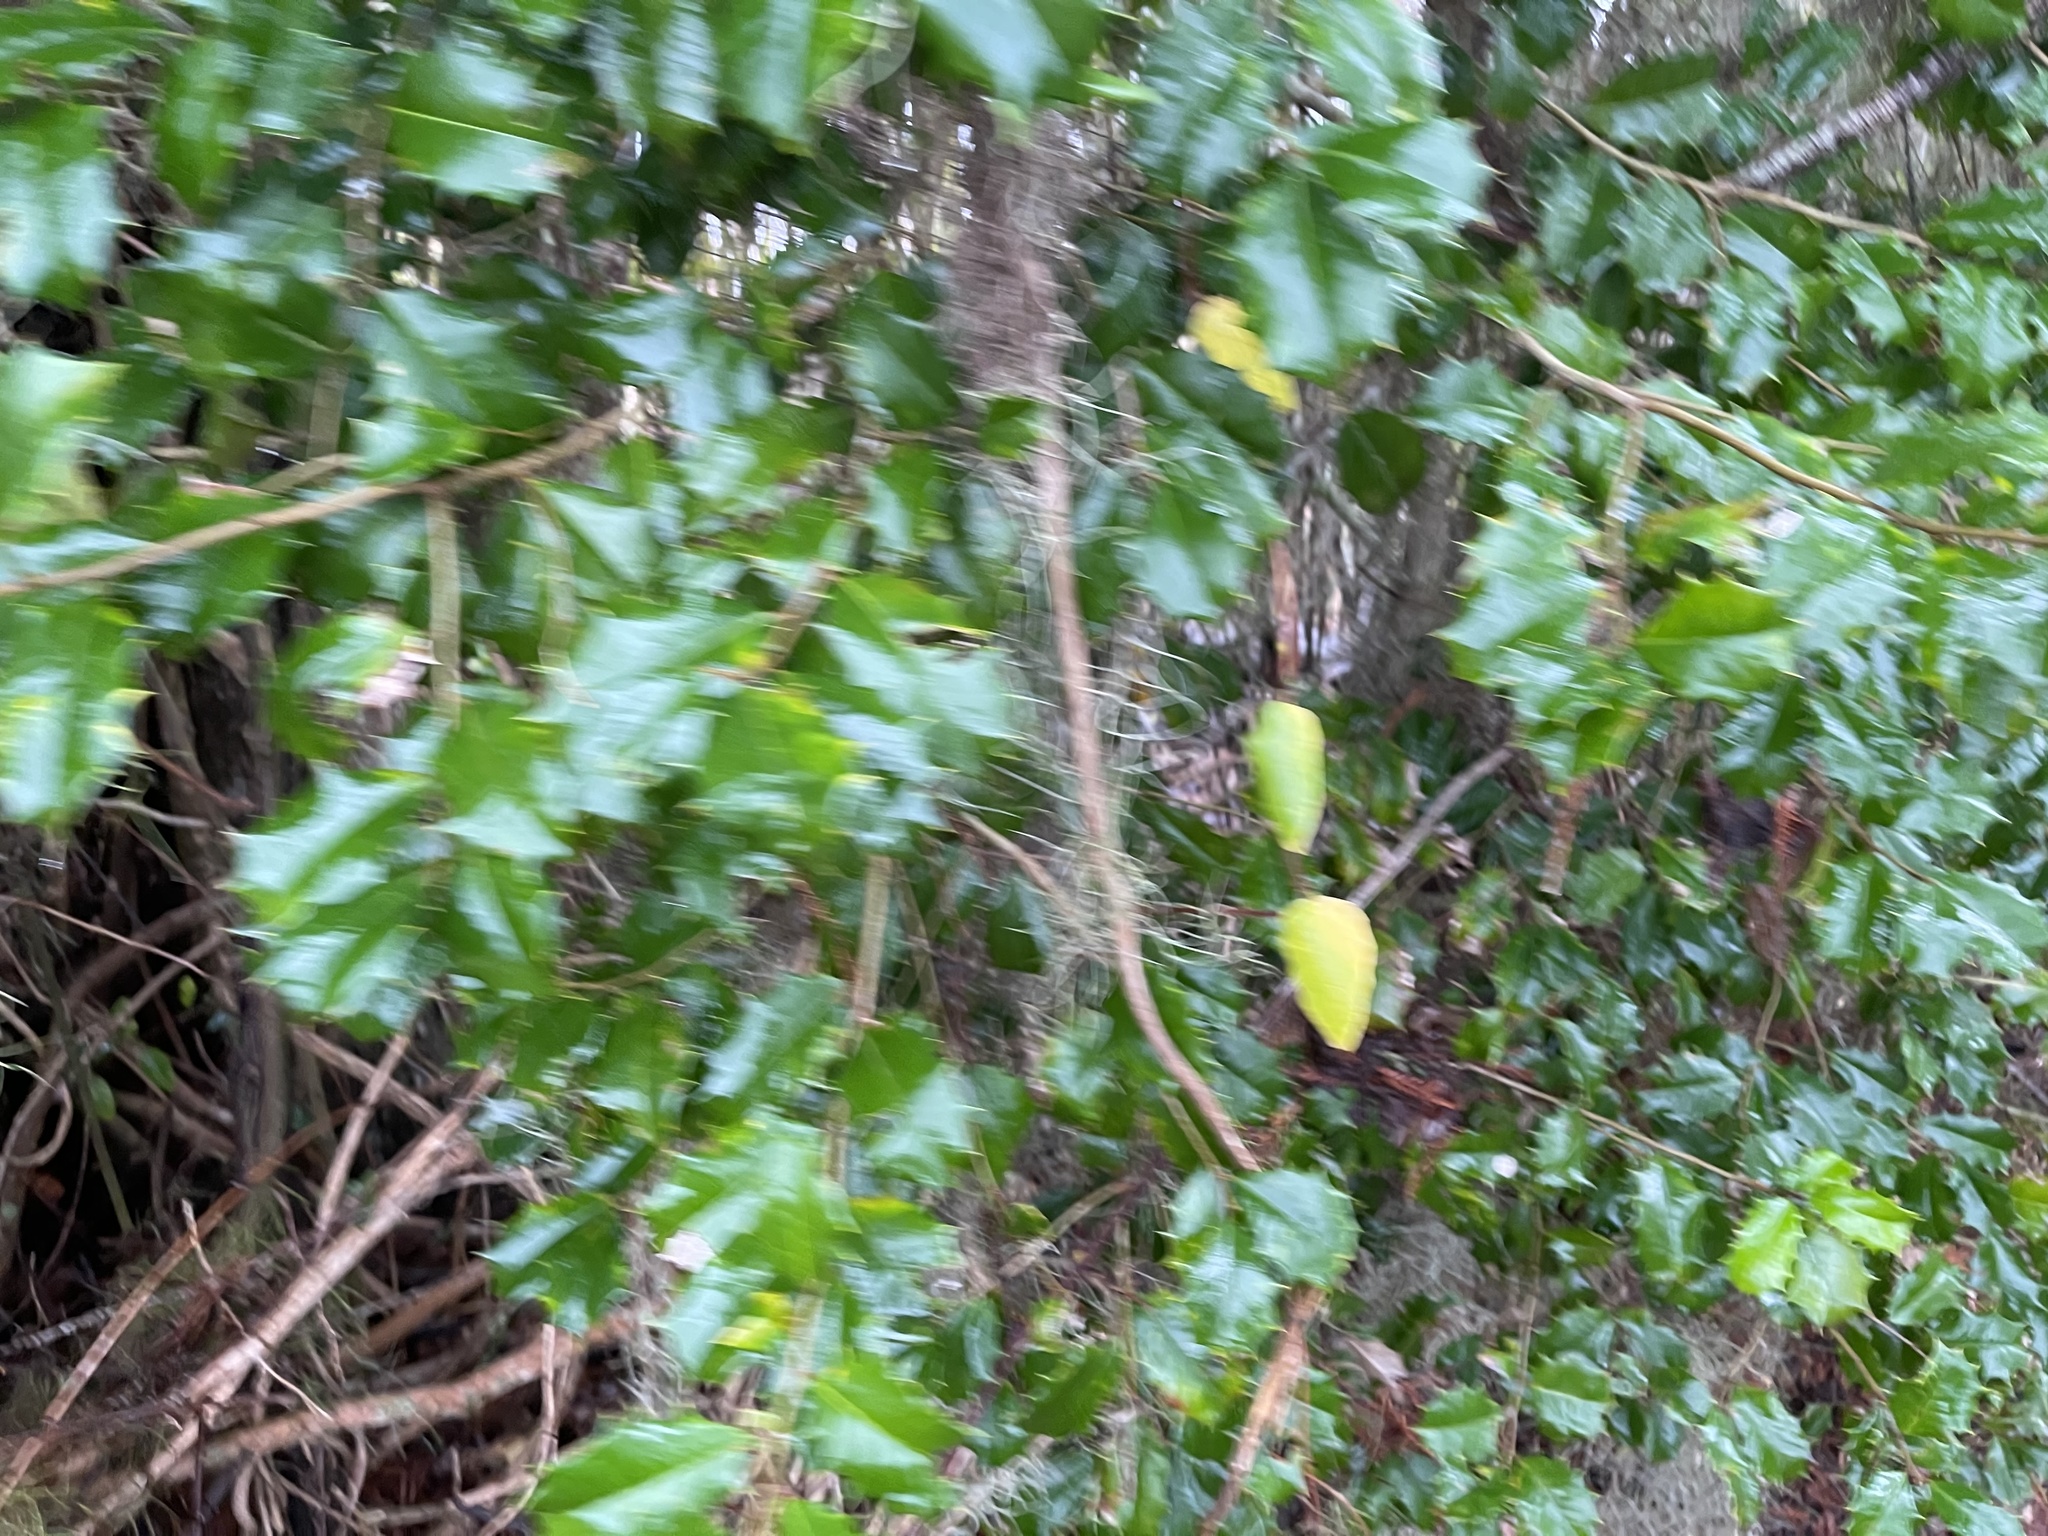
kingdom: Plantae
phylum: Tracheophyta
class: Magnoliopsida
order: Aquifoliales
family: Aquifoliaceae
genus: Ilex
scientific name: Ilex opaca
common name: American holly
